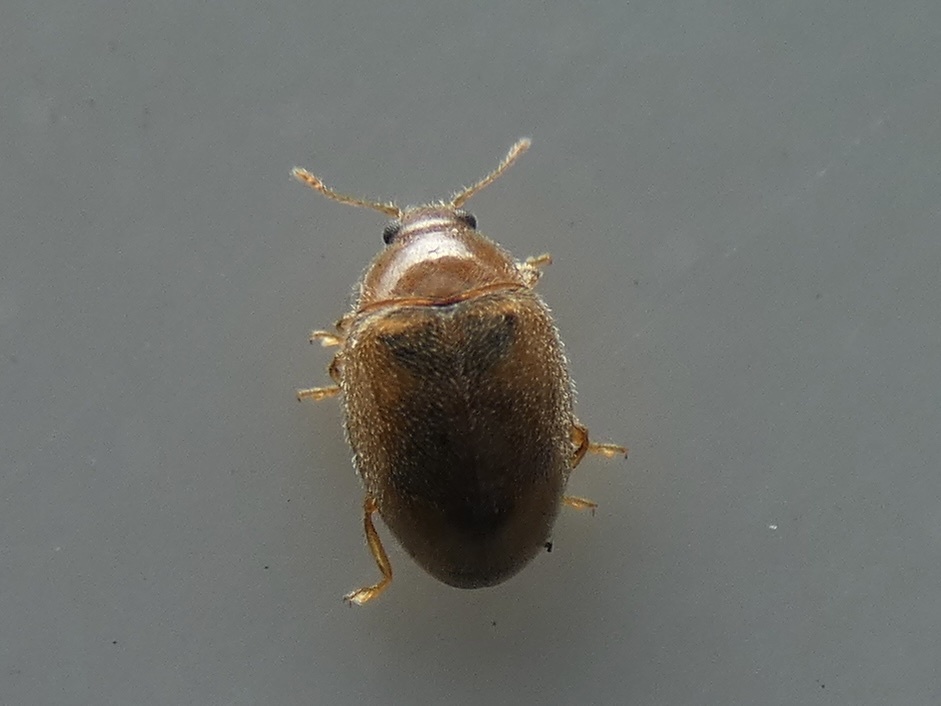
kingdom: Animalia
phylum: Arthropoda
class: Insecta
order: Coleoptera
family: Coccinellidae
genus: Rhyzobius
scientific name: Rhyzobius litura
